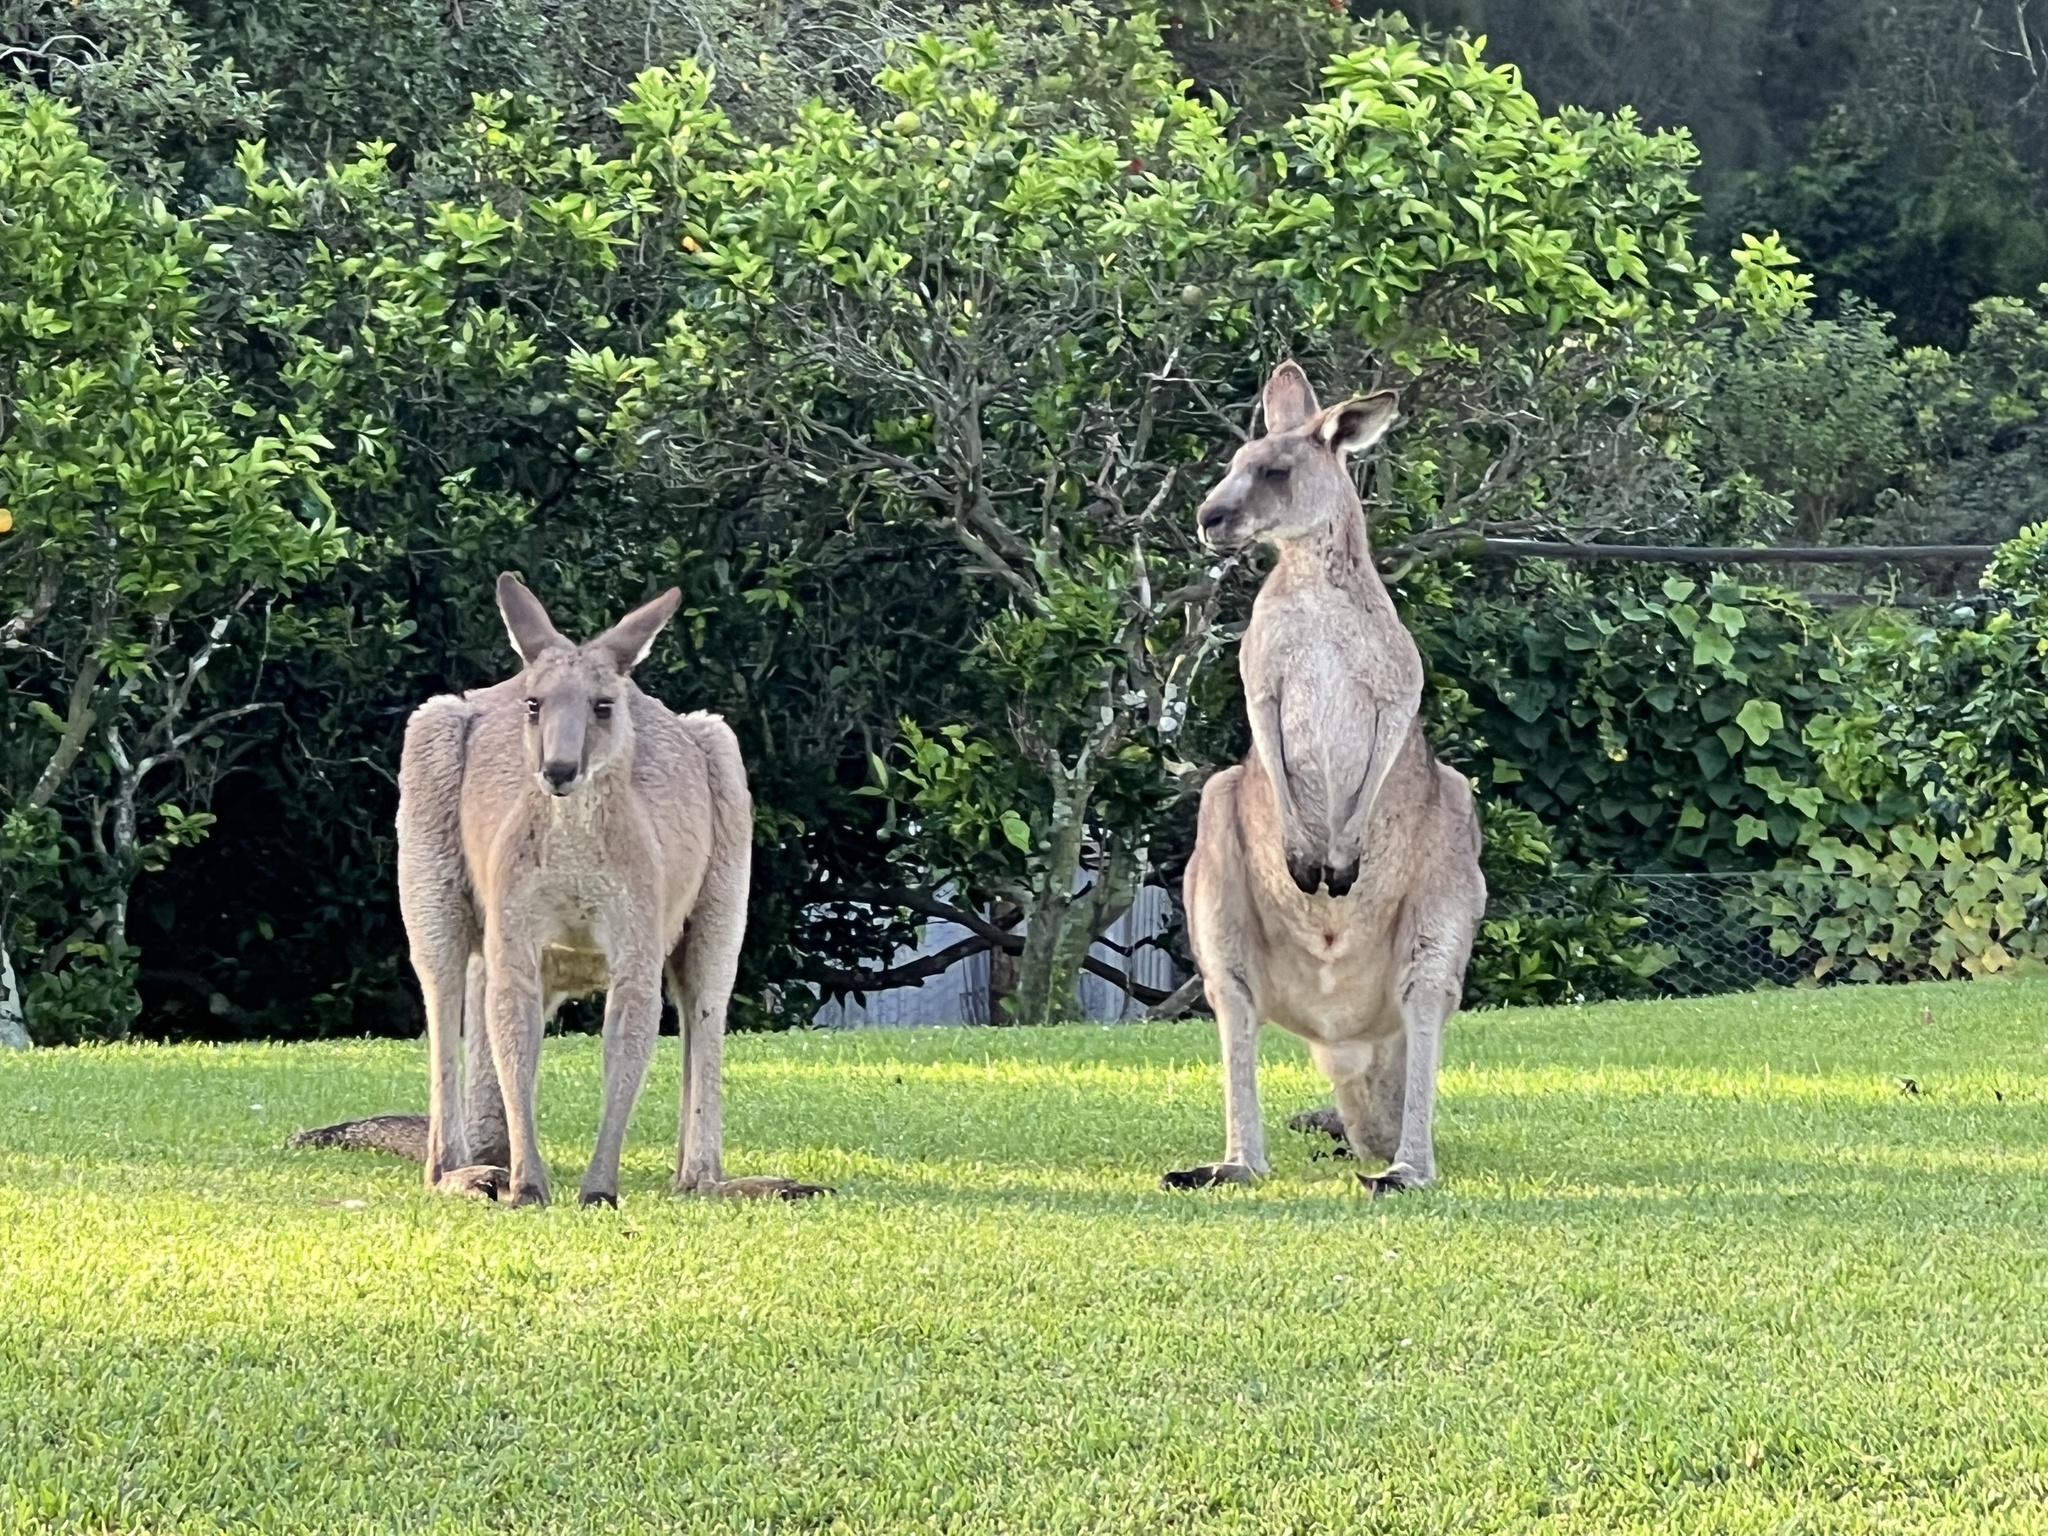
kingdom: Animalia
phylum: Chordata
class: Mammalia
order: Diprotodontia
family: Macropodidae
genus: Macropus
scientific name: Macropus giganteus
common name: Eastern grey kangaroo
